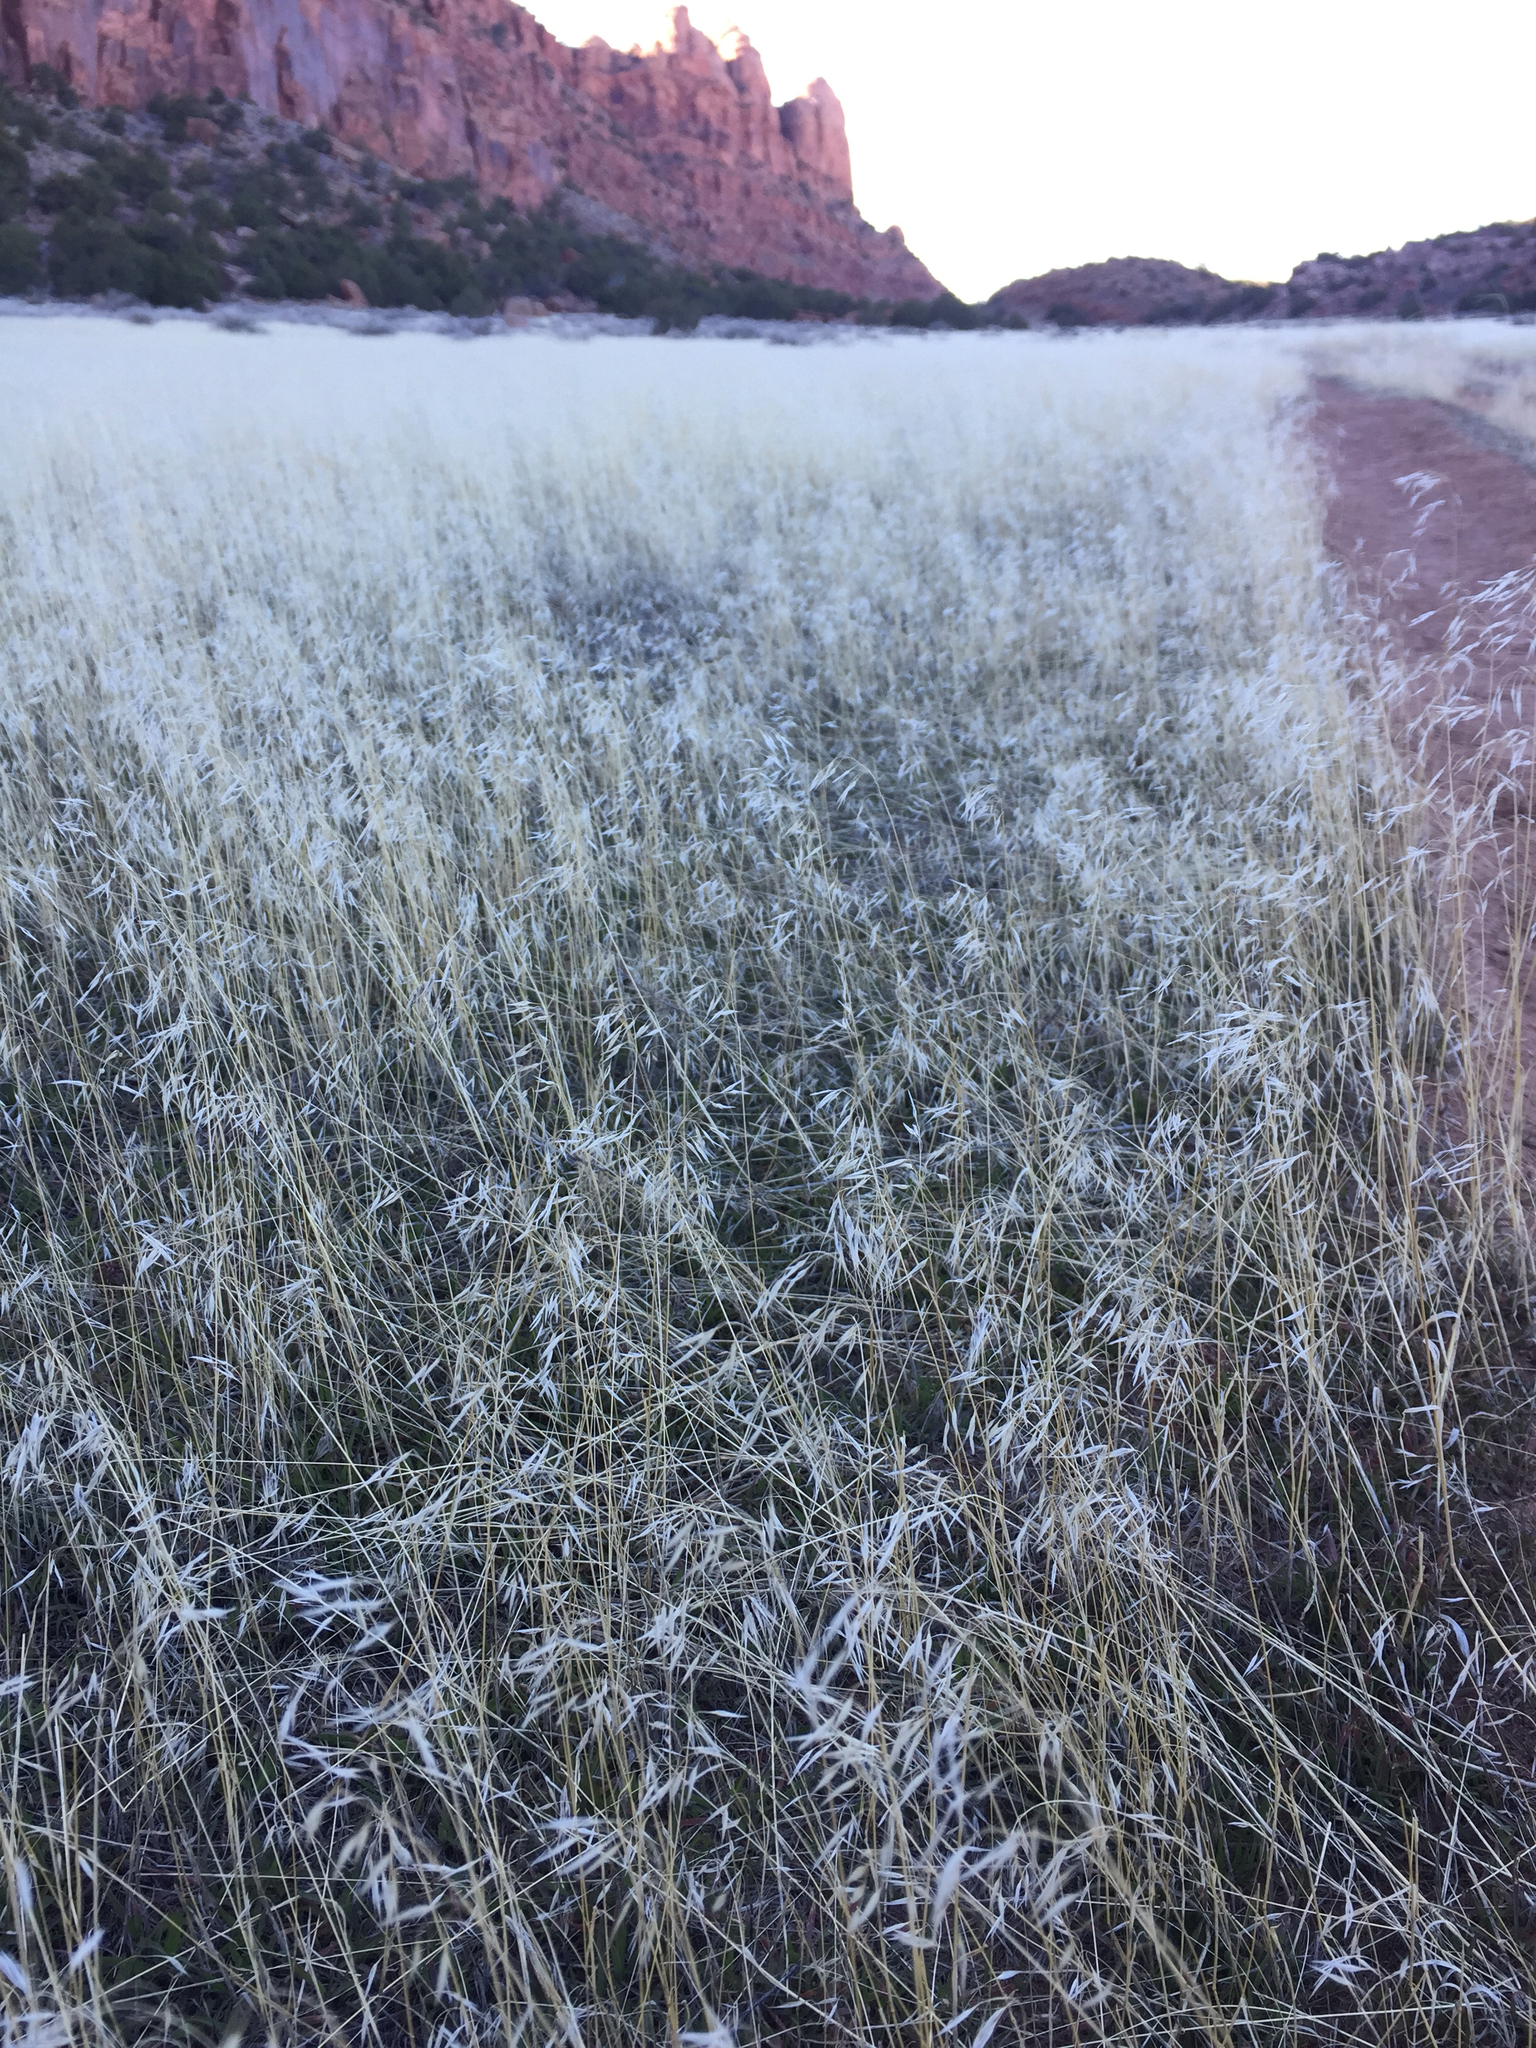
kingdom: Plantae
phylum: Tracheophyta
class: Liliopsida
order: Poales
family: Poaceae
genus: Bromus
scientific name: Bromus tectorum
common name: Cheatgrass
